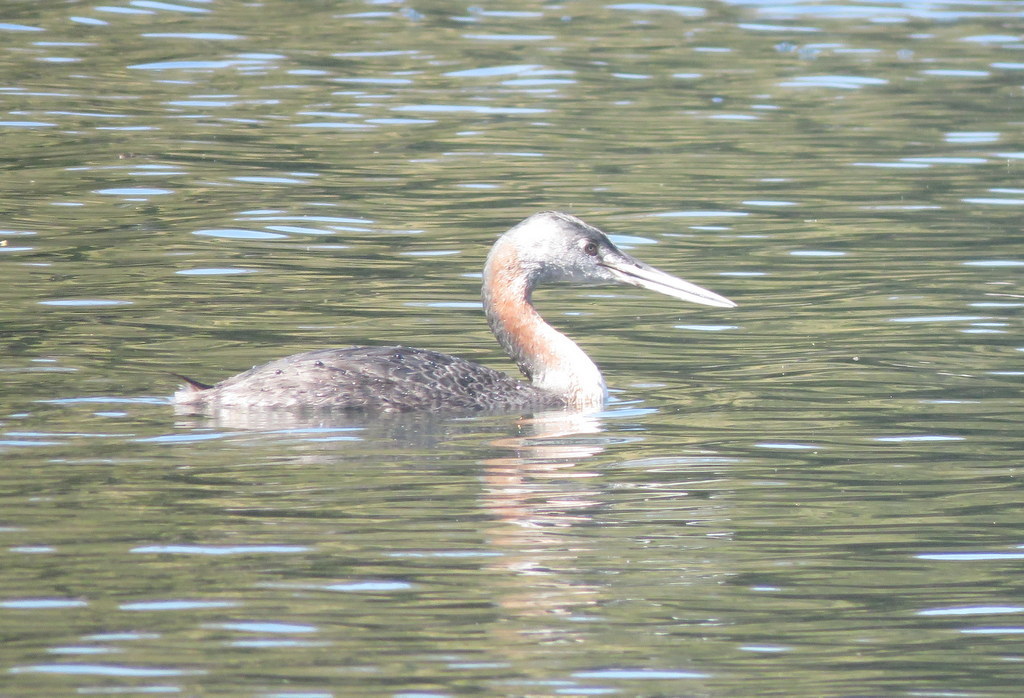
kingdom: Animalia
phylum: Chordata
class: Aves
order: Podicipediformes
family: Podicipedidae
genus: Podiceps
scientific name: Podiceps major
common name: Great grebe
